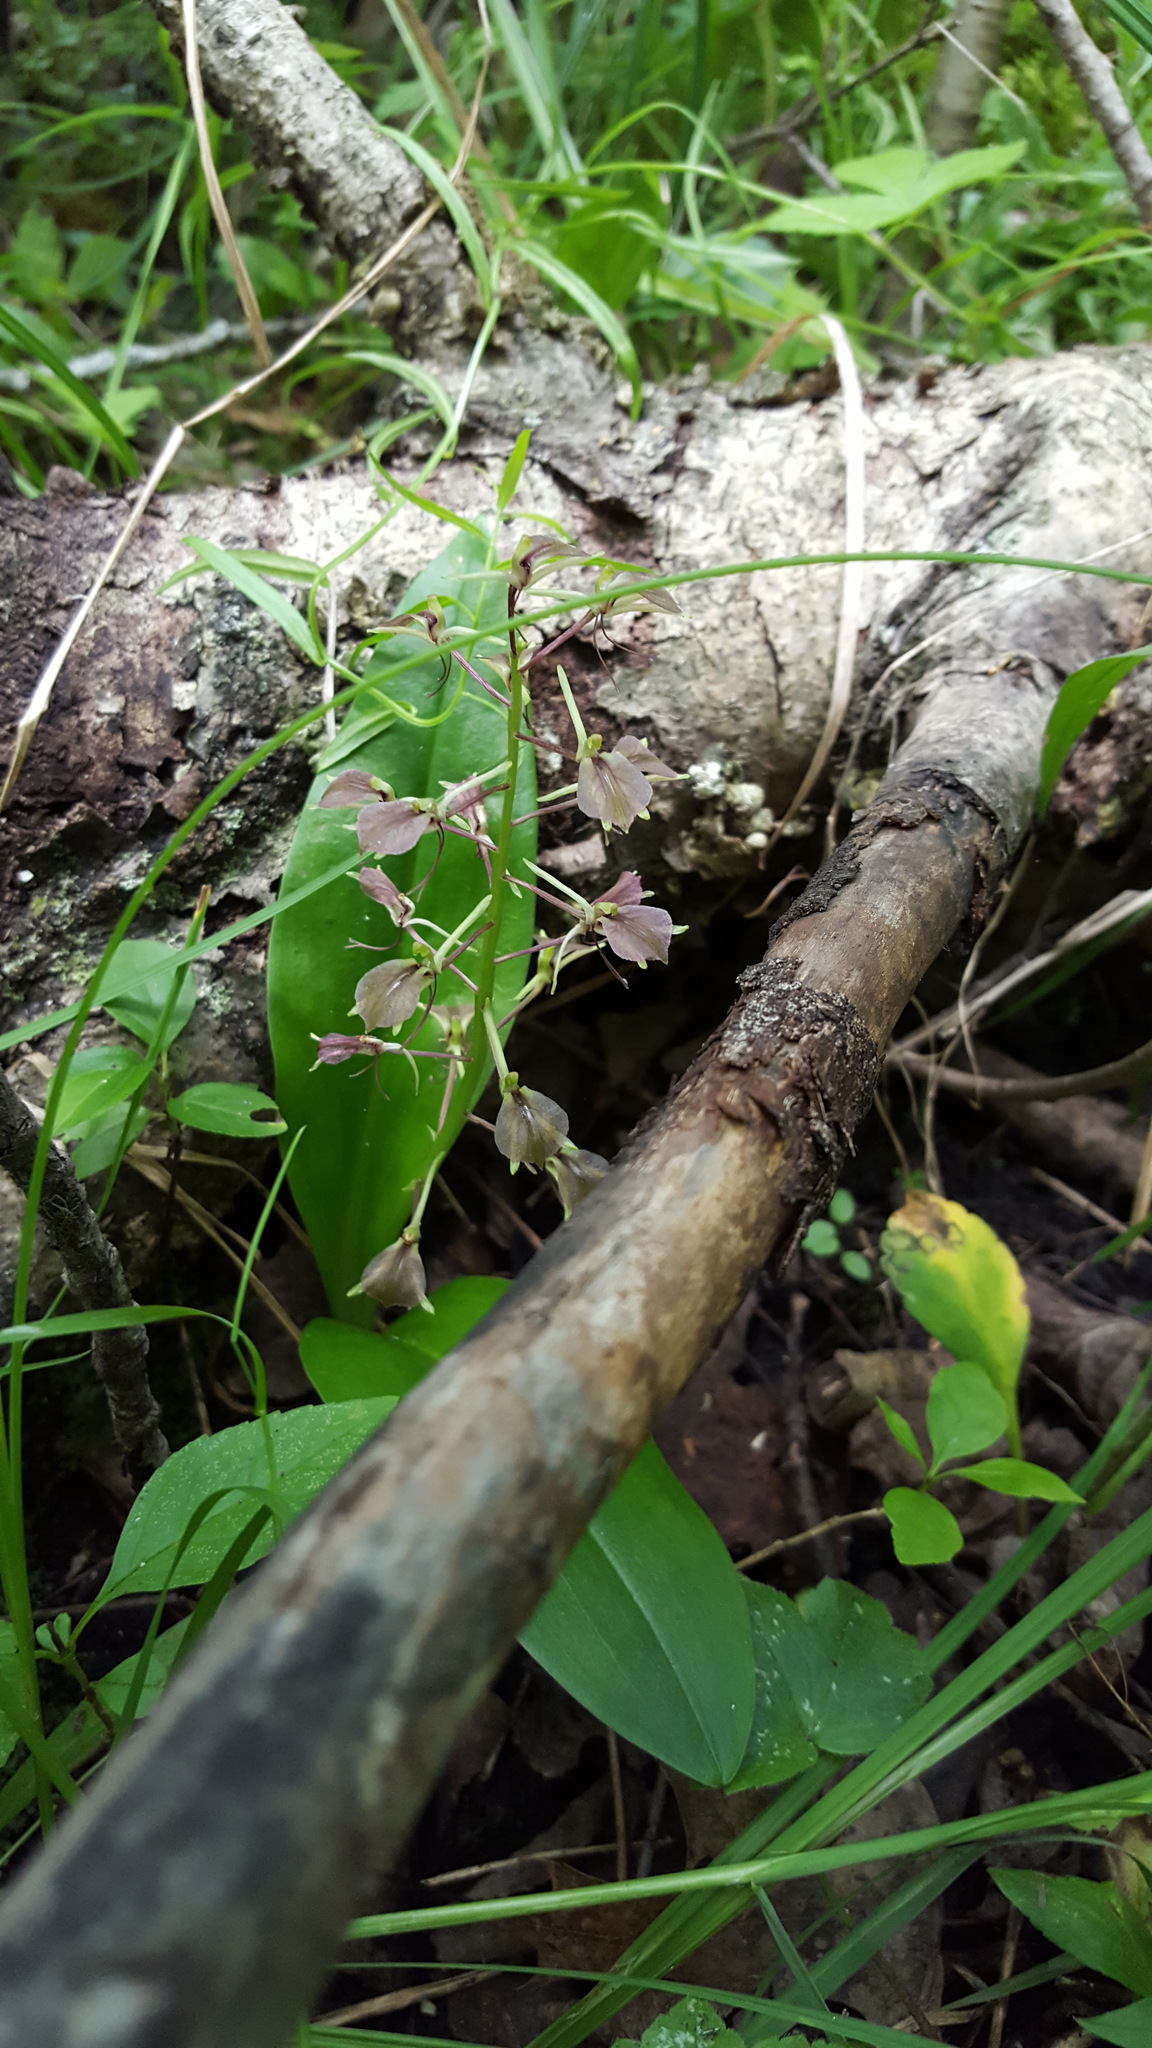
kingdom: Plantae
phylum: Tracheophyta
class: Liliopsida
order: Asparagales
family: Orchidaceae
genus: Liparis
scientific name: Liparis liliifolia
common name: Brown wide-lip orchid
